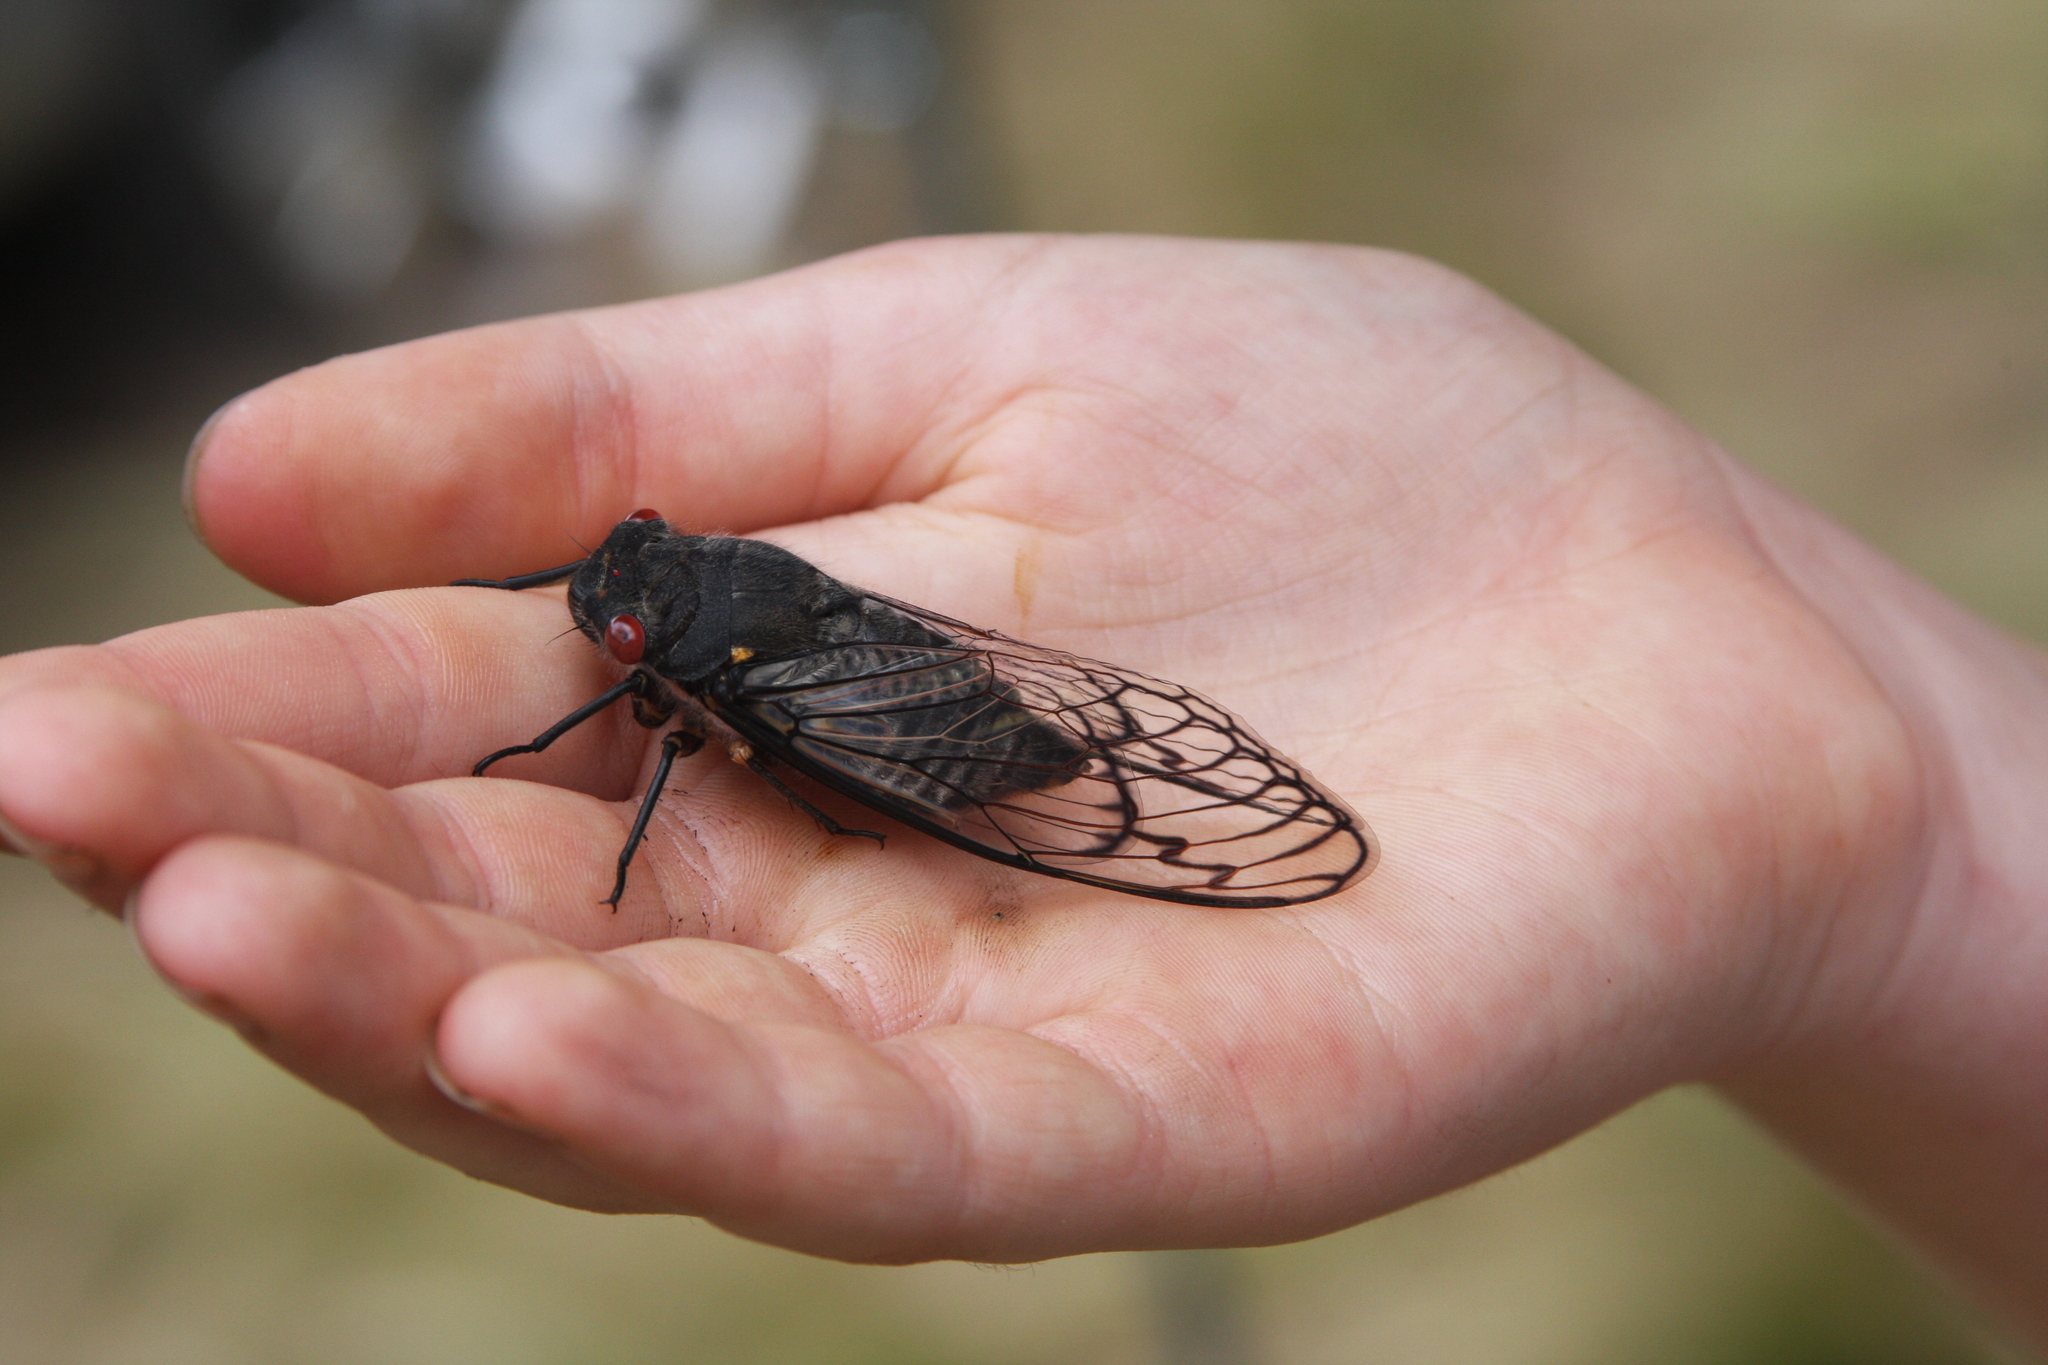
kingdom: Animalia
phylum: Arthropoda
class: Insecta
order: Hemiptera
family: Cicadidae
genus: Psaltoda
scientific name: Psaltoda moerens
